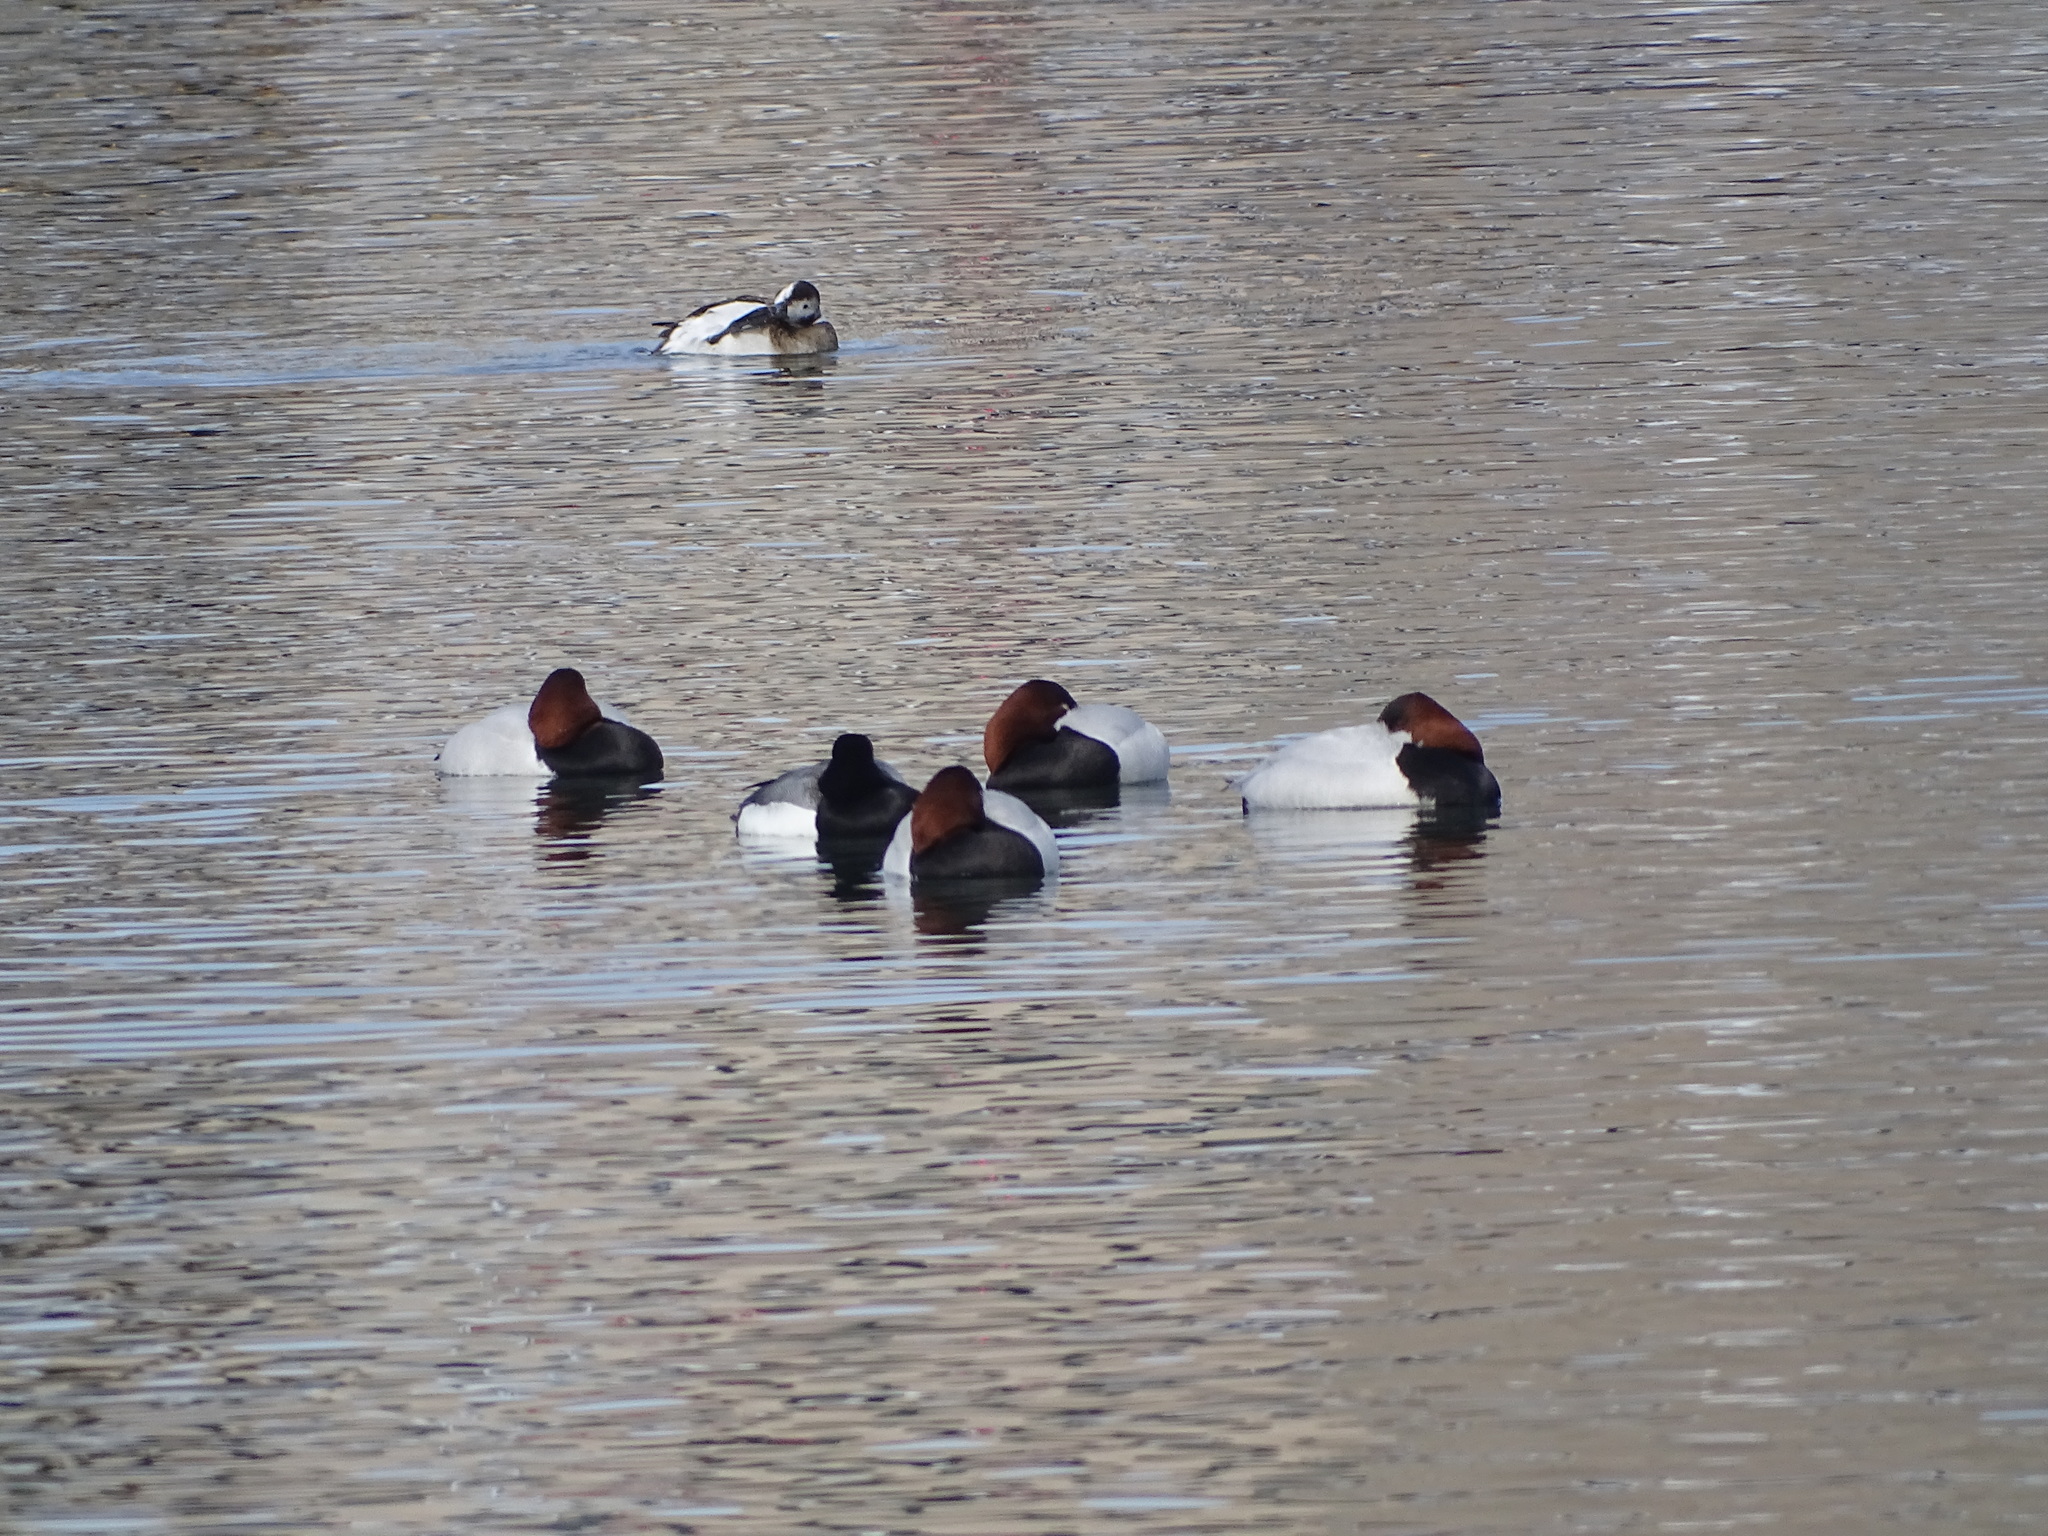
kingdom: Animalia
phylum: Chordata
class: Aves
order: Anseriformes
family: Anatidae
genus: Aythya
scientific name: Aythya valisineria
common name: Canvasback
